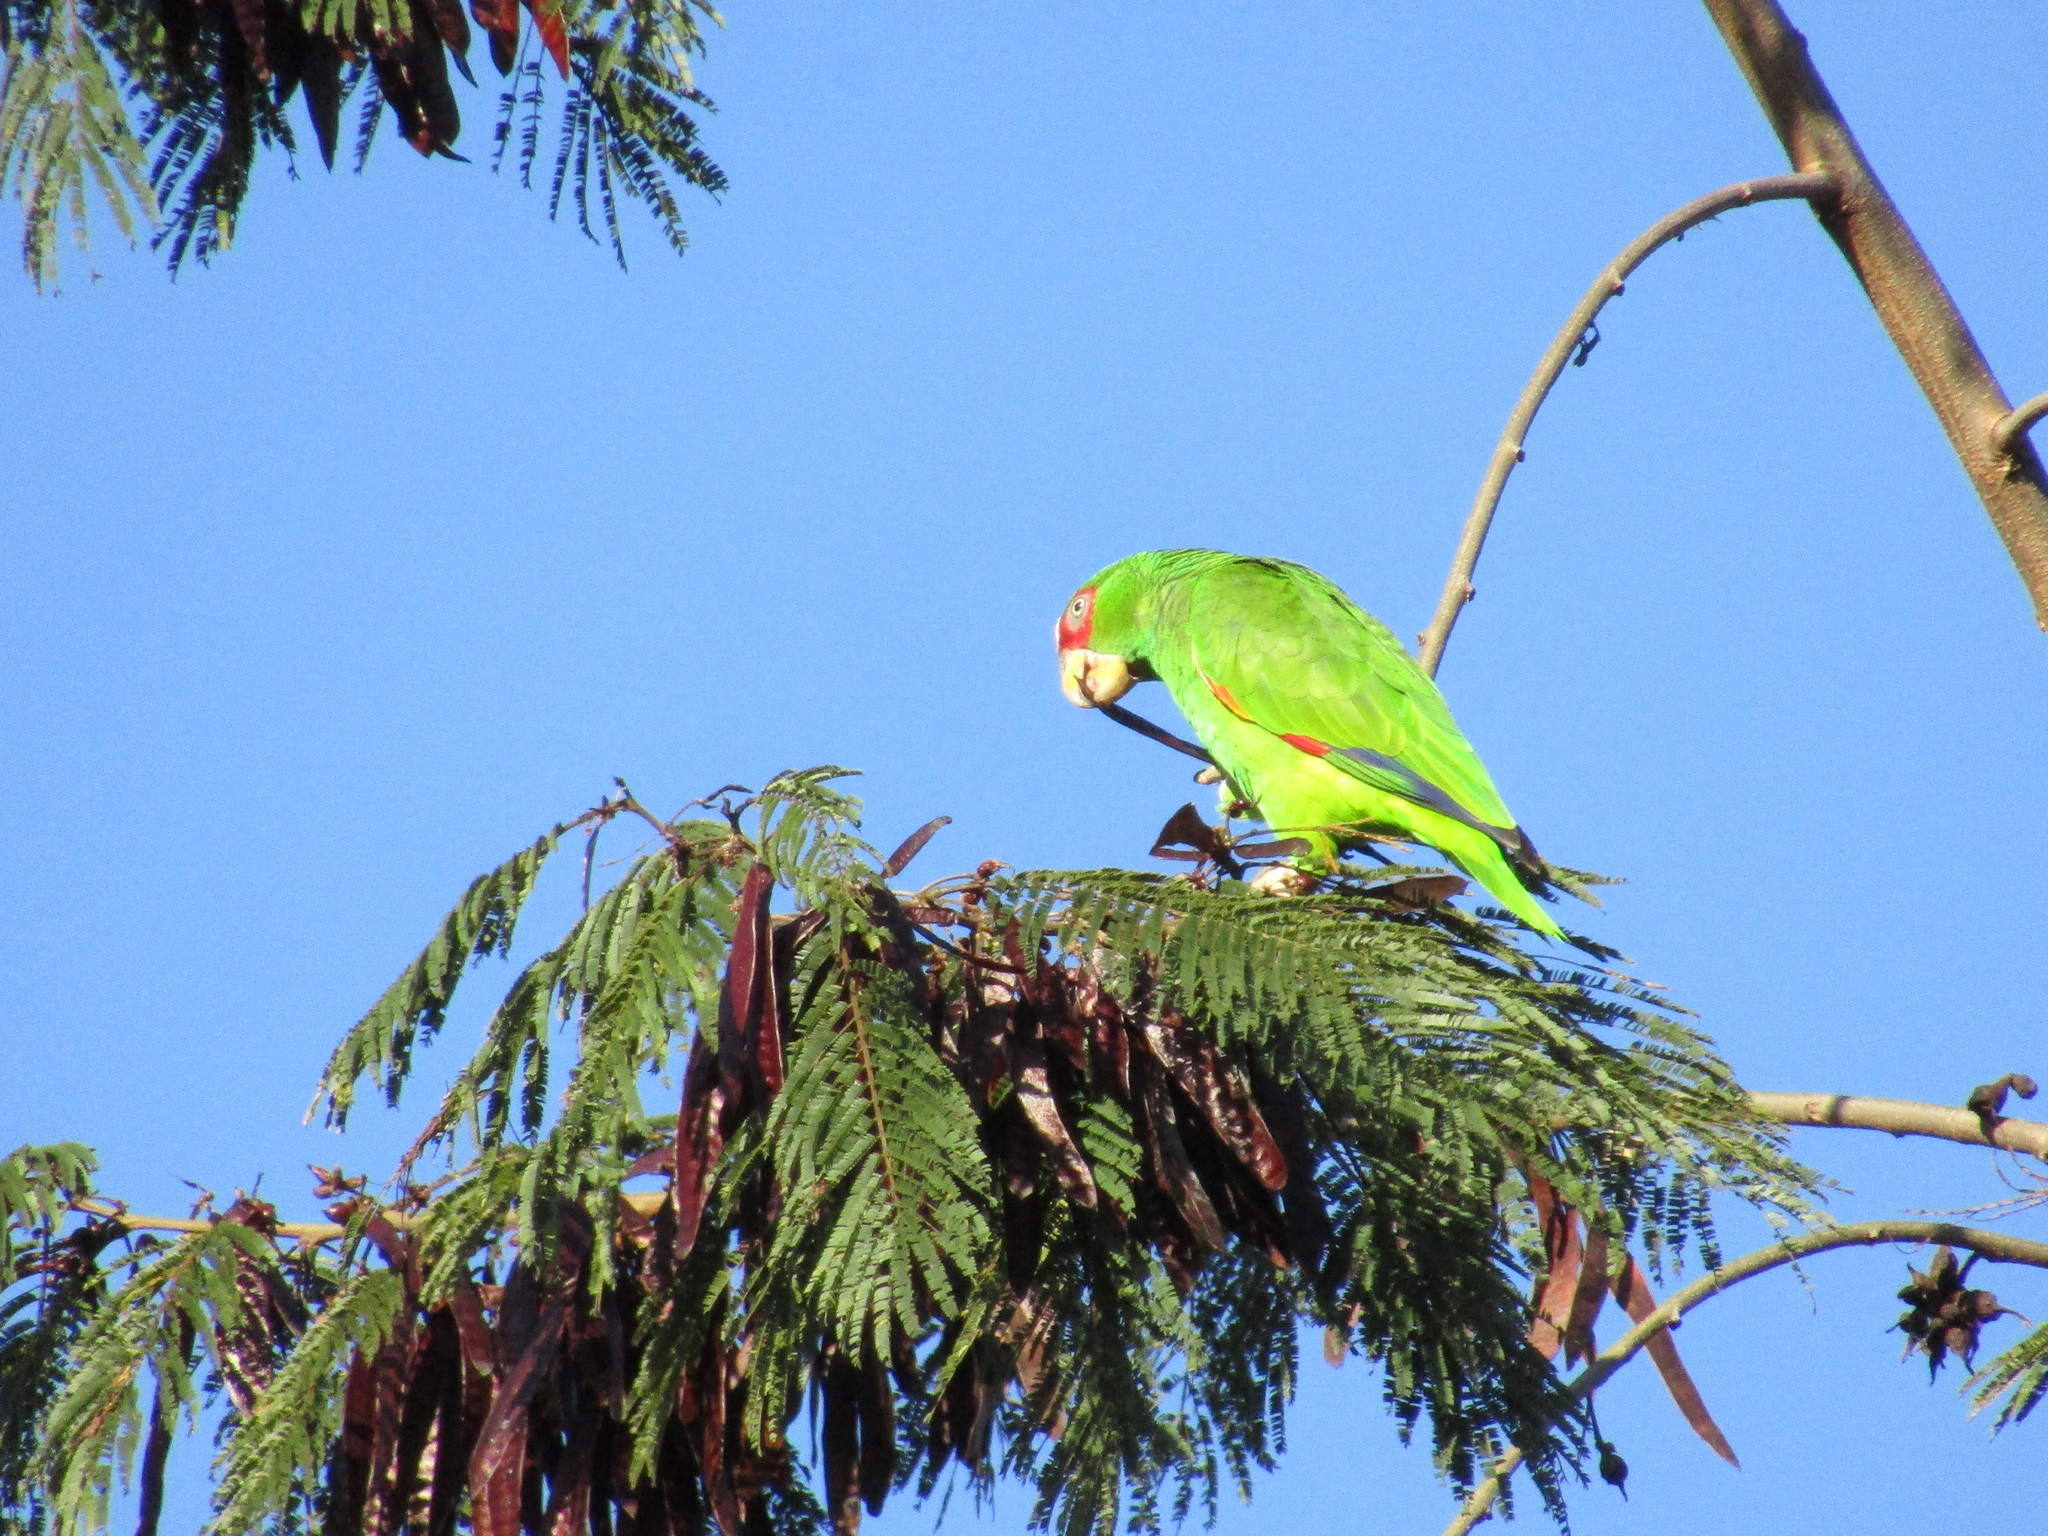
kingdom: Animalia
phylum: Chordata
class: Aves
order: Psittaciformes
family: Psittacidae
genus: Amazona
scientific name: Amazona albifrons
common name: White-fronted amazon
